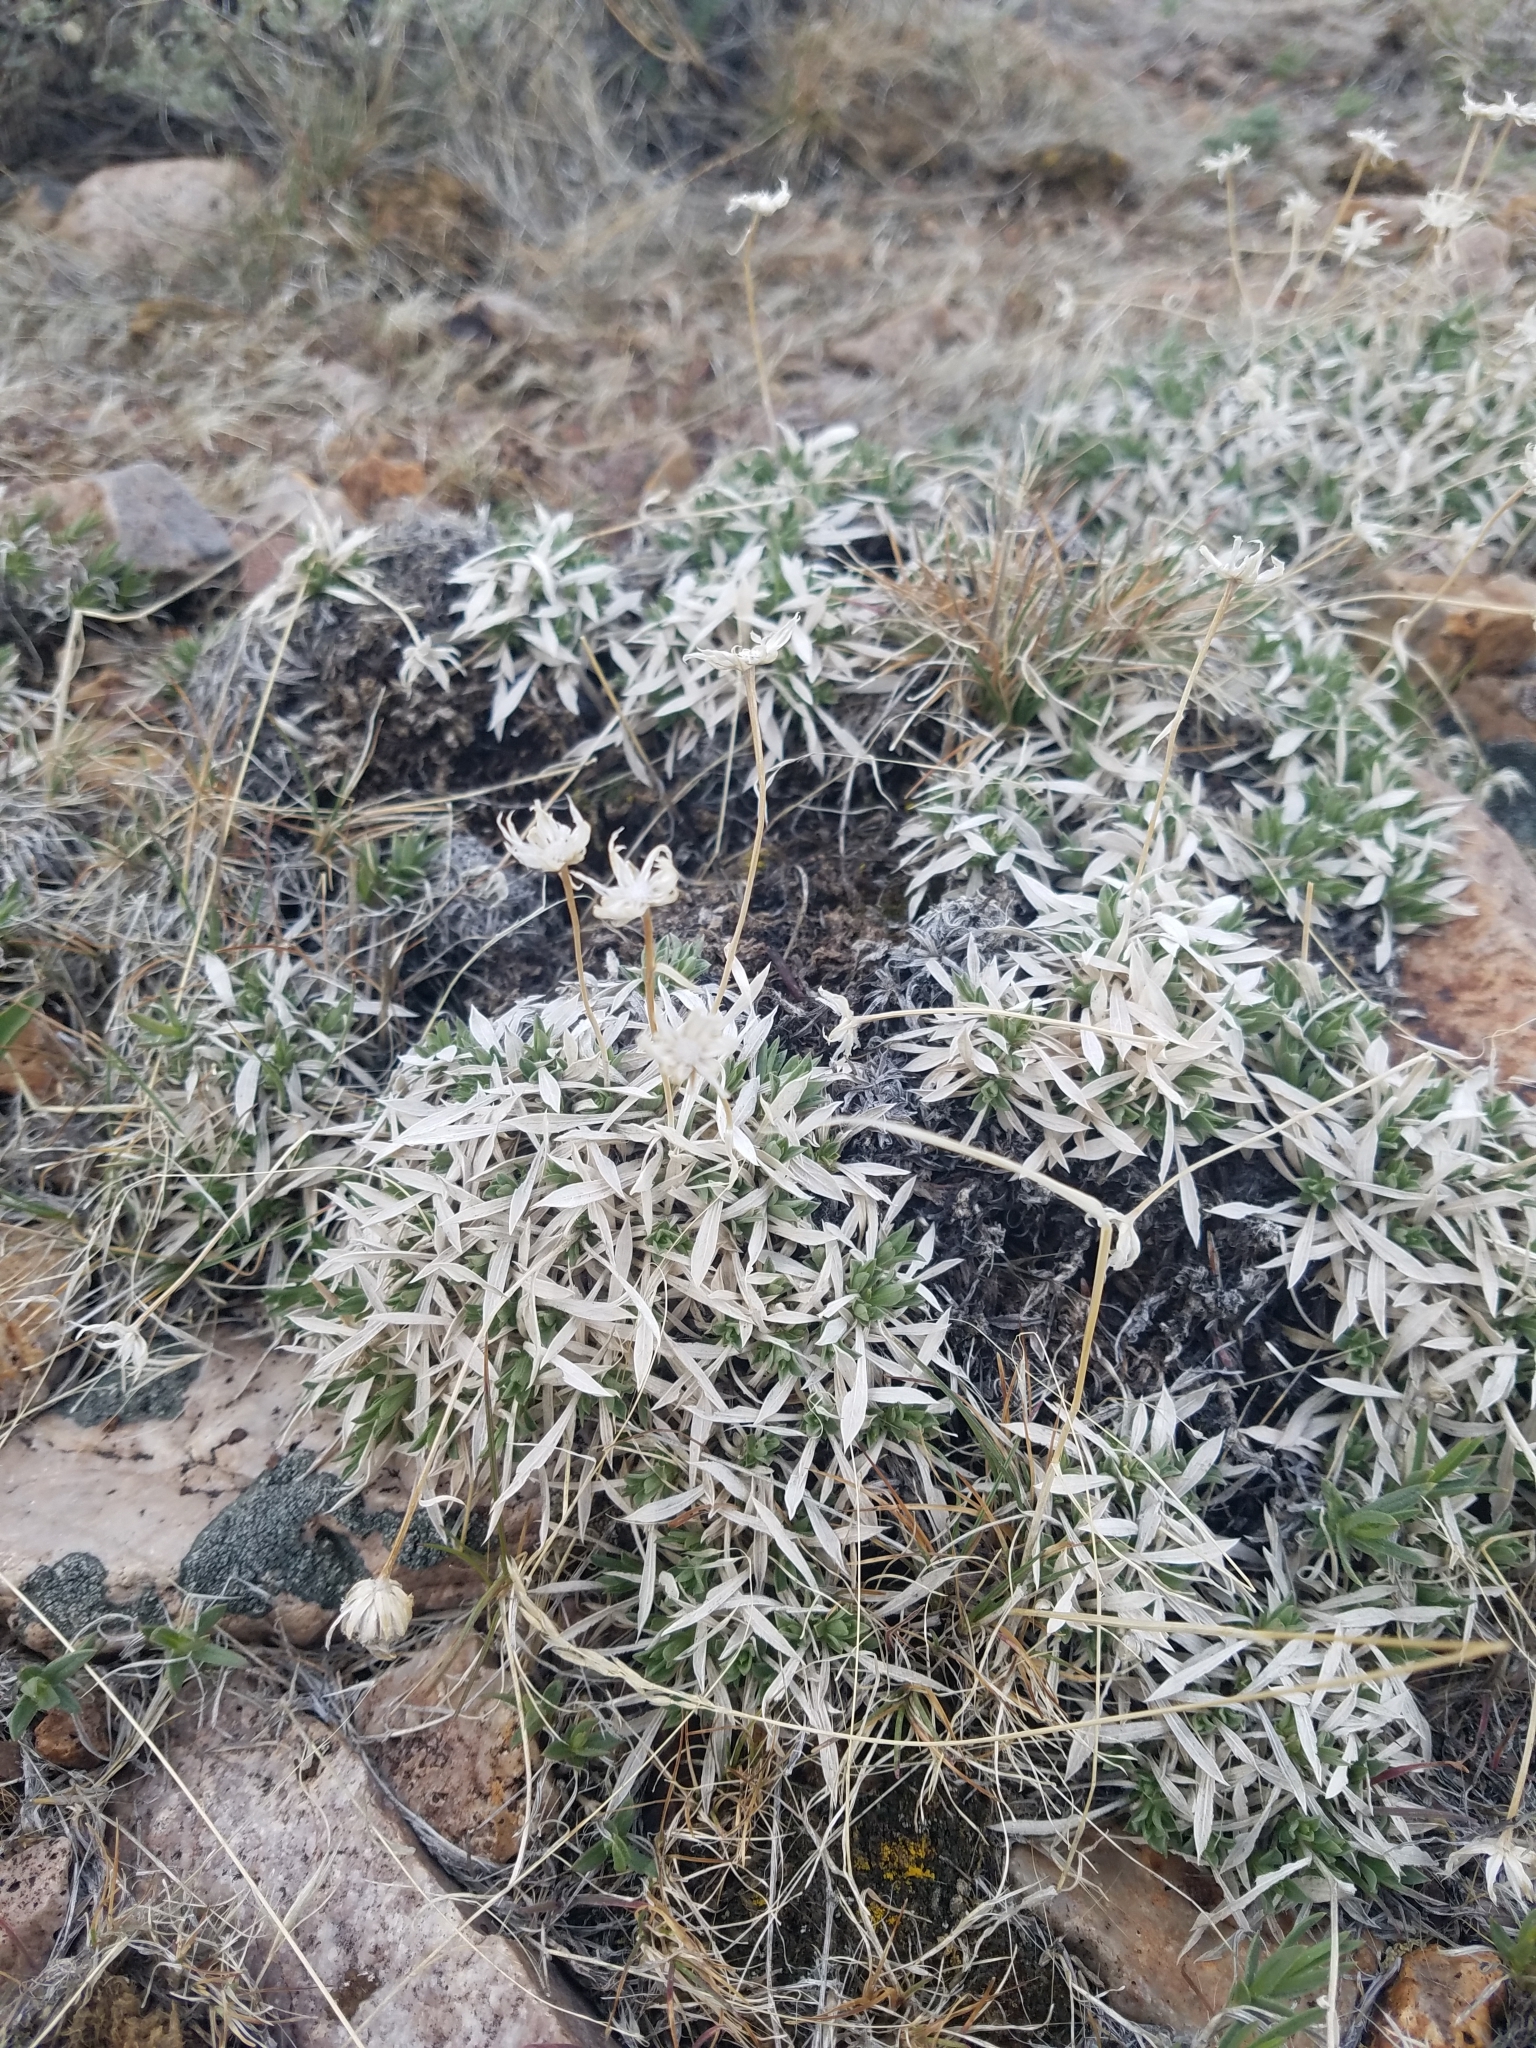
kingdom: Plantae
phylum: Tracheophyta
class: Magnoliopsida
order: Asterales
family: Asteraceae
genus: Stenotus
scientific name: Stenotus acaulis
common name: Stemless goldenweed
